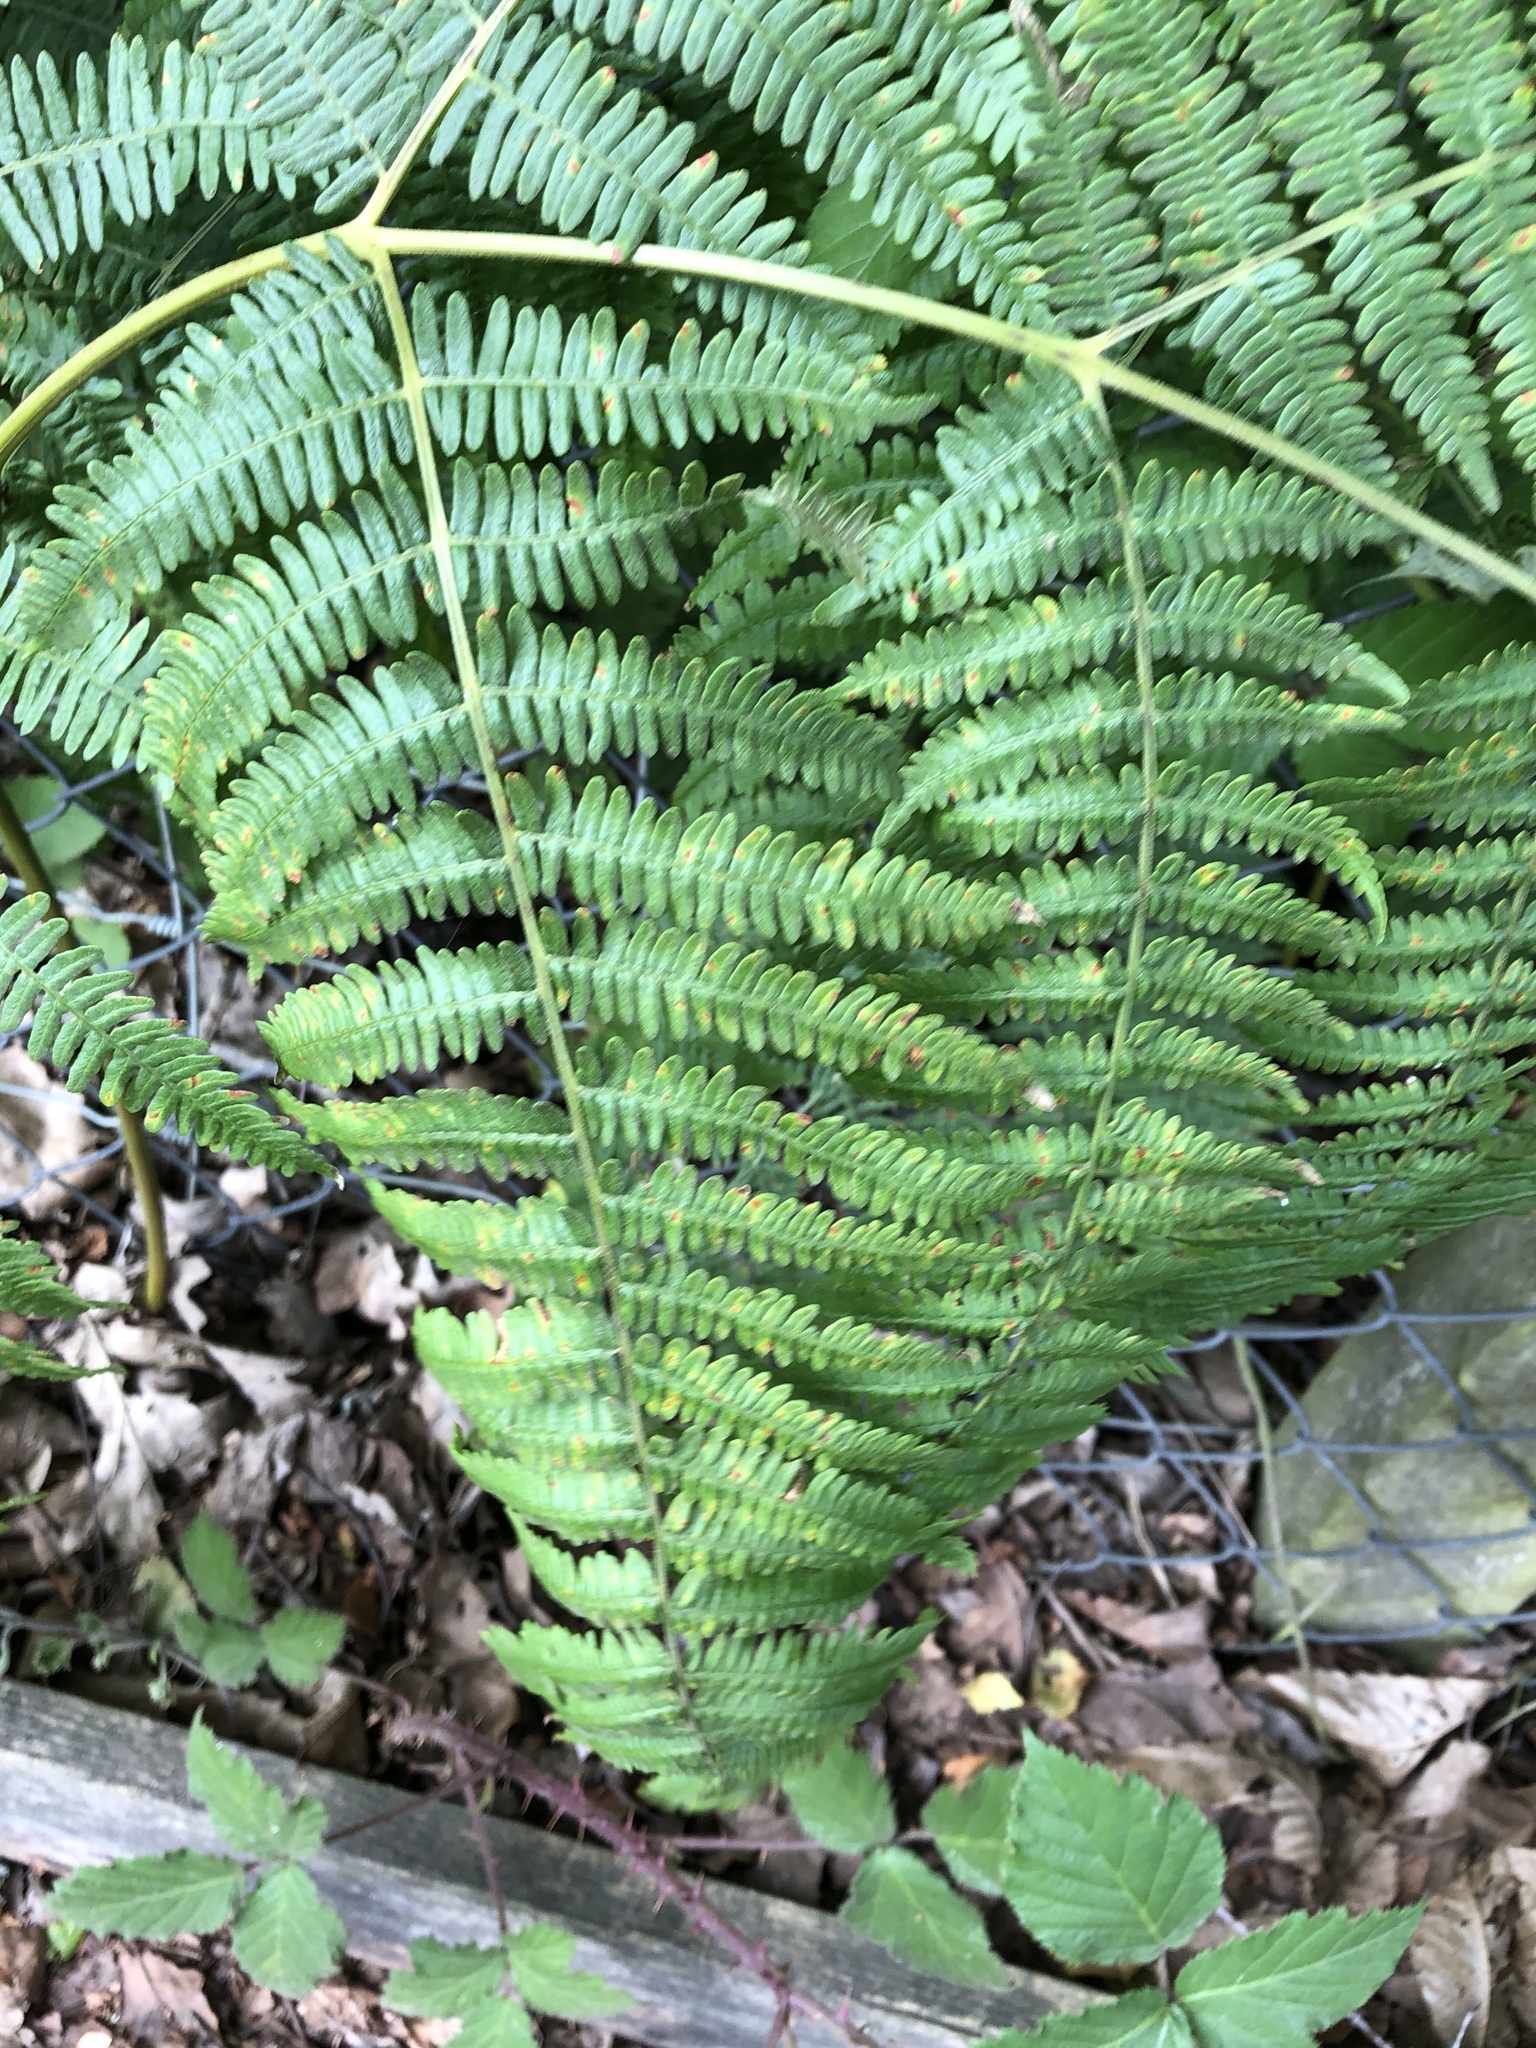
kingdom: Plantae
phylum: Tracheophyta
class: Polypodiopsida
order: Polypodiales
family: Dennstaedtiaceae
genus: Pteridium
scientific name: Pteridium aquilinum
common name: Bracken
